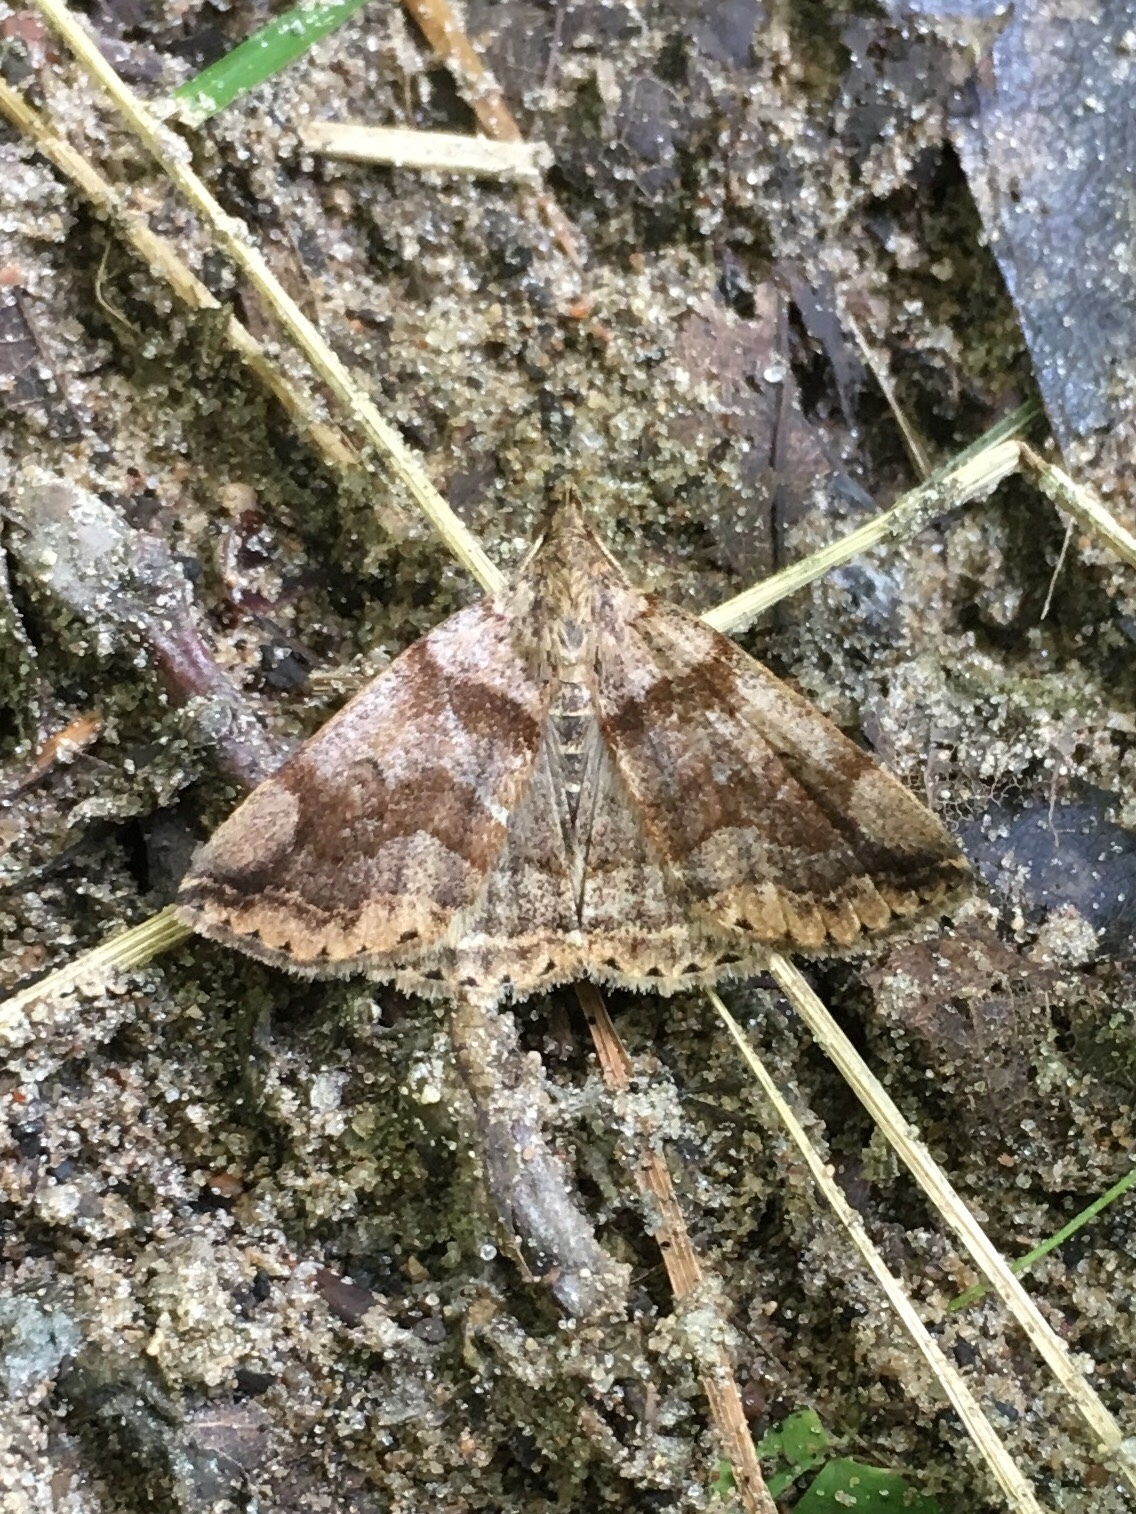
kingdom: Animalia
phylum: Arthropoda
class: Insecta
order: Lepidoptera
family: Erebidae
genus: Zanclognatha
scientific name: Zanclognatha laevigata
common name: Variable fan-foot
